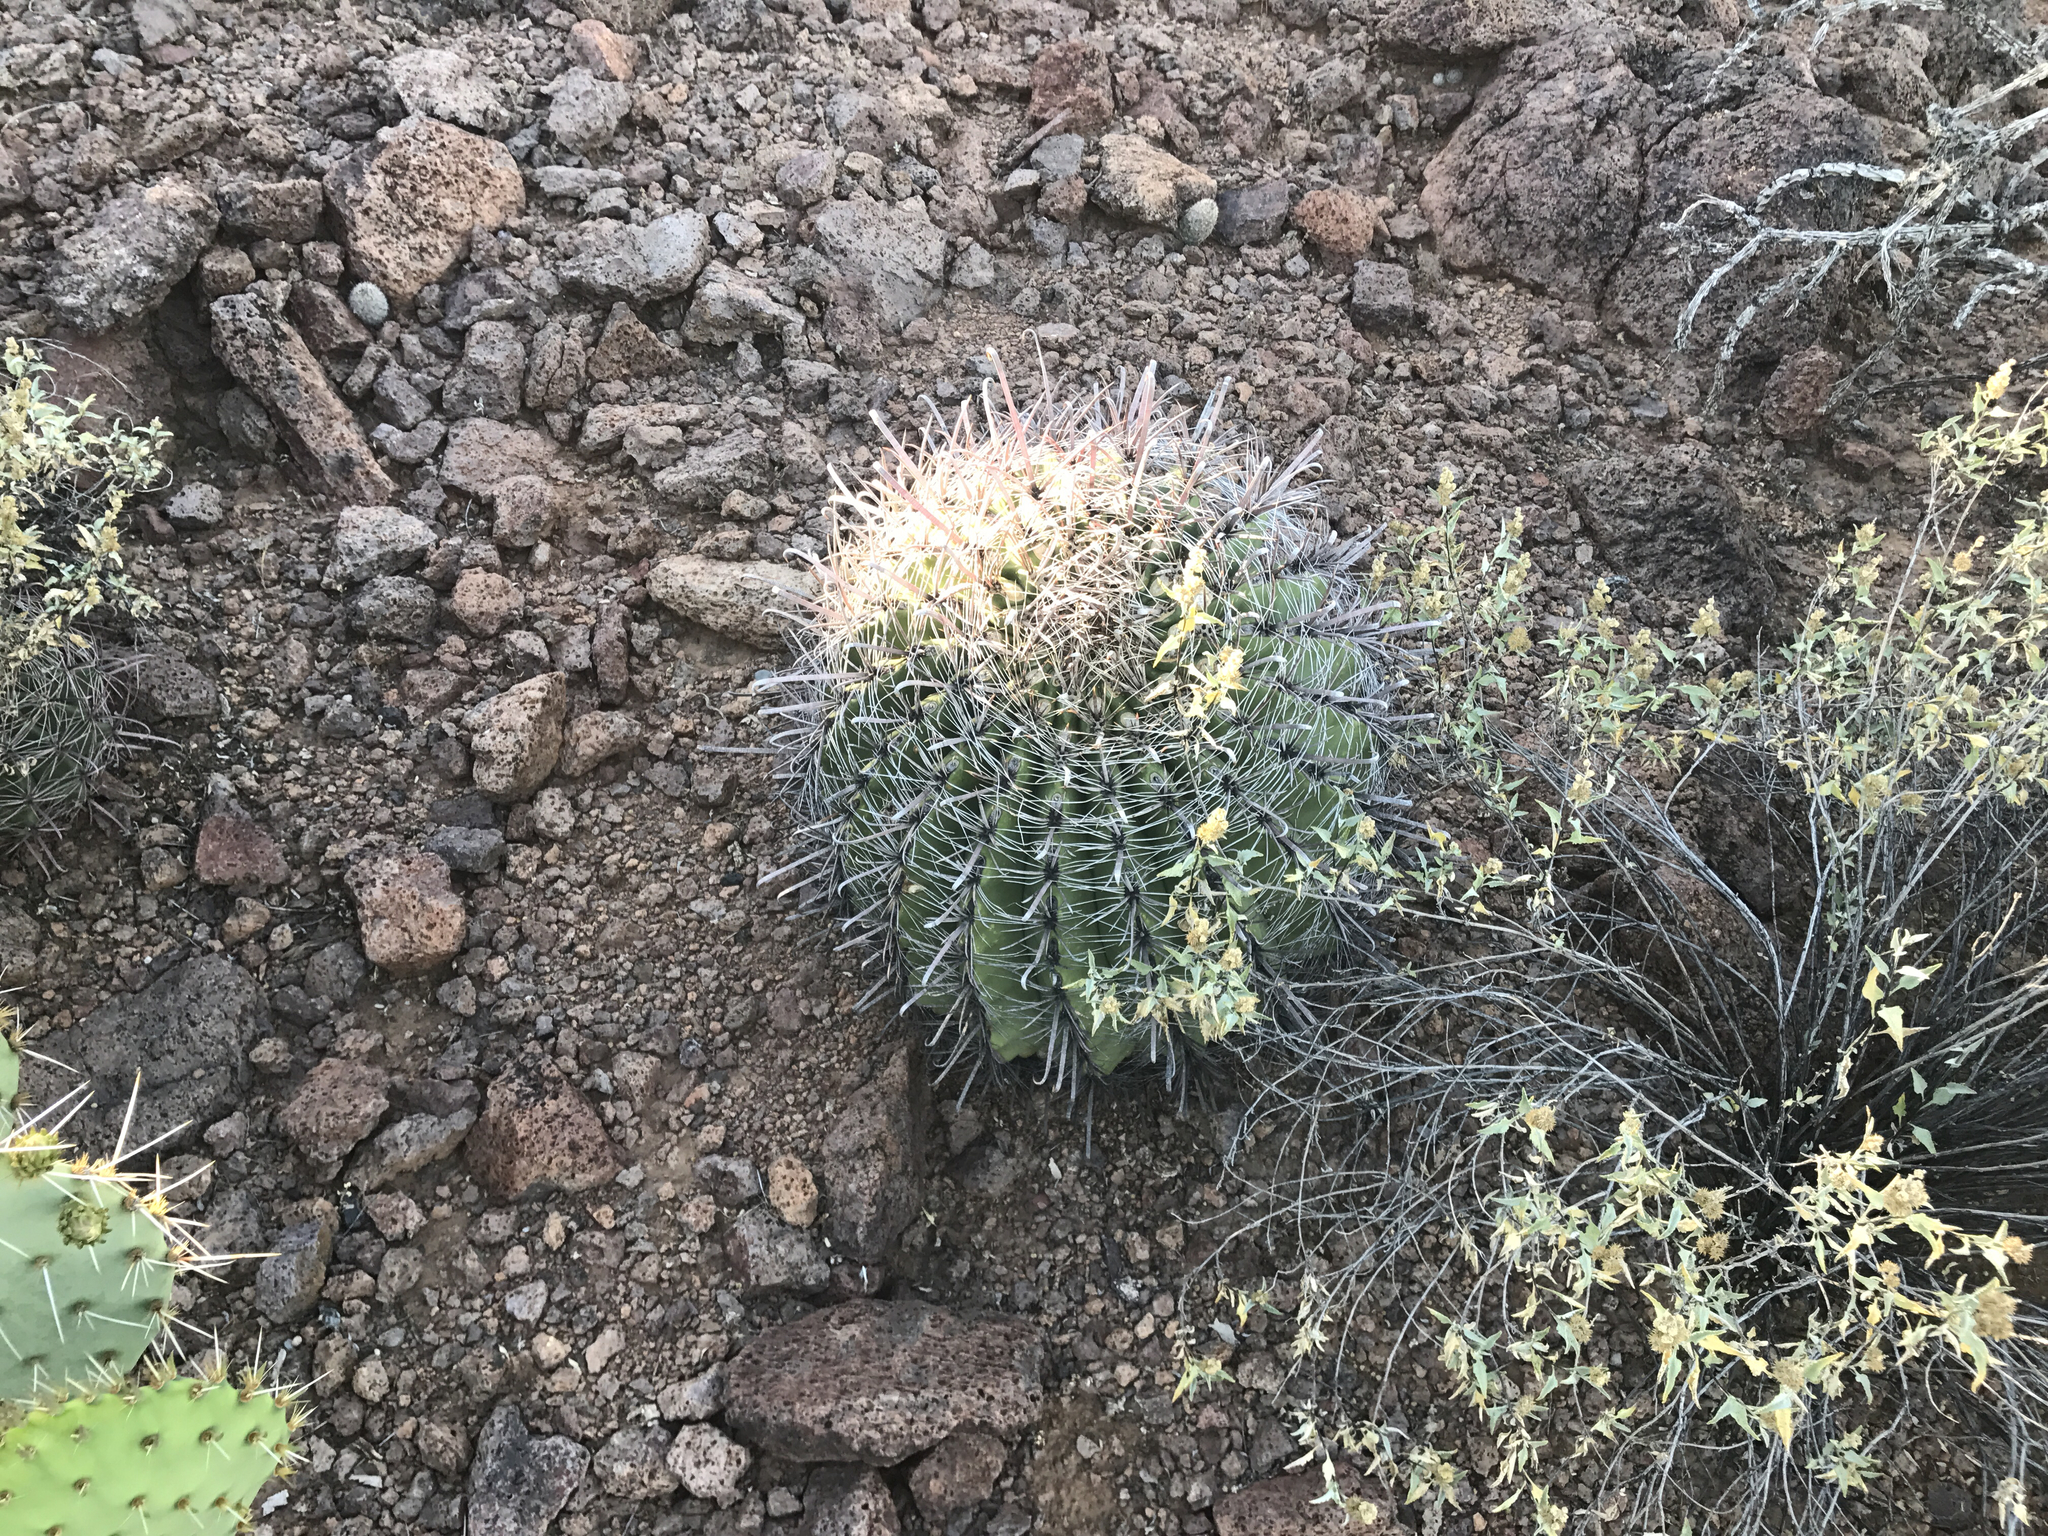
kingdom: Plantae
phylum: Tracheophyta
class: Magnoliopsida
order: Caryophyllales
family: Cactaceae
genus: Ferocactus
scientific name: Ferocactus wislizeni
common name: Candy barrel cactus
